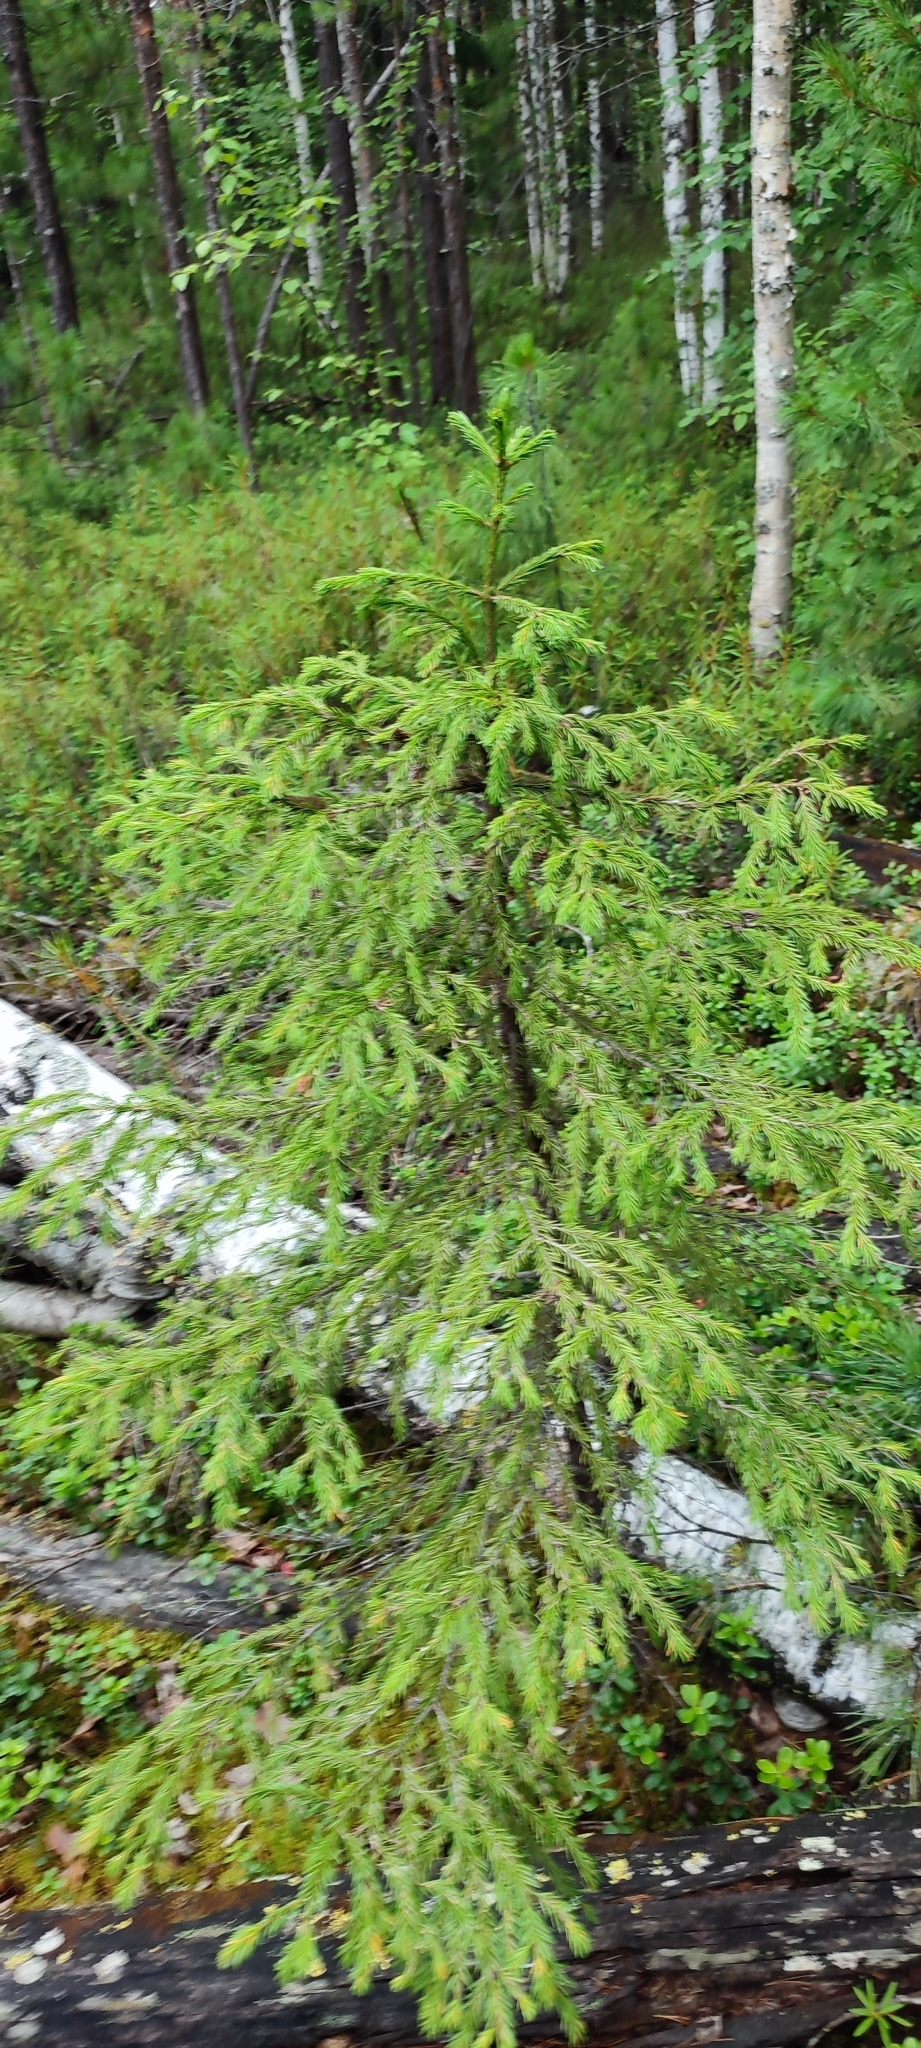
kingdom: Plantae
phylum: Tracheophyta
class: Pinopsida
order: Pinales
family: Pinaceae
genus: Picea
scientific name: Picea obovata
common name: Siberian spruce
